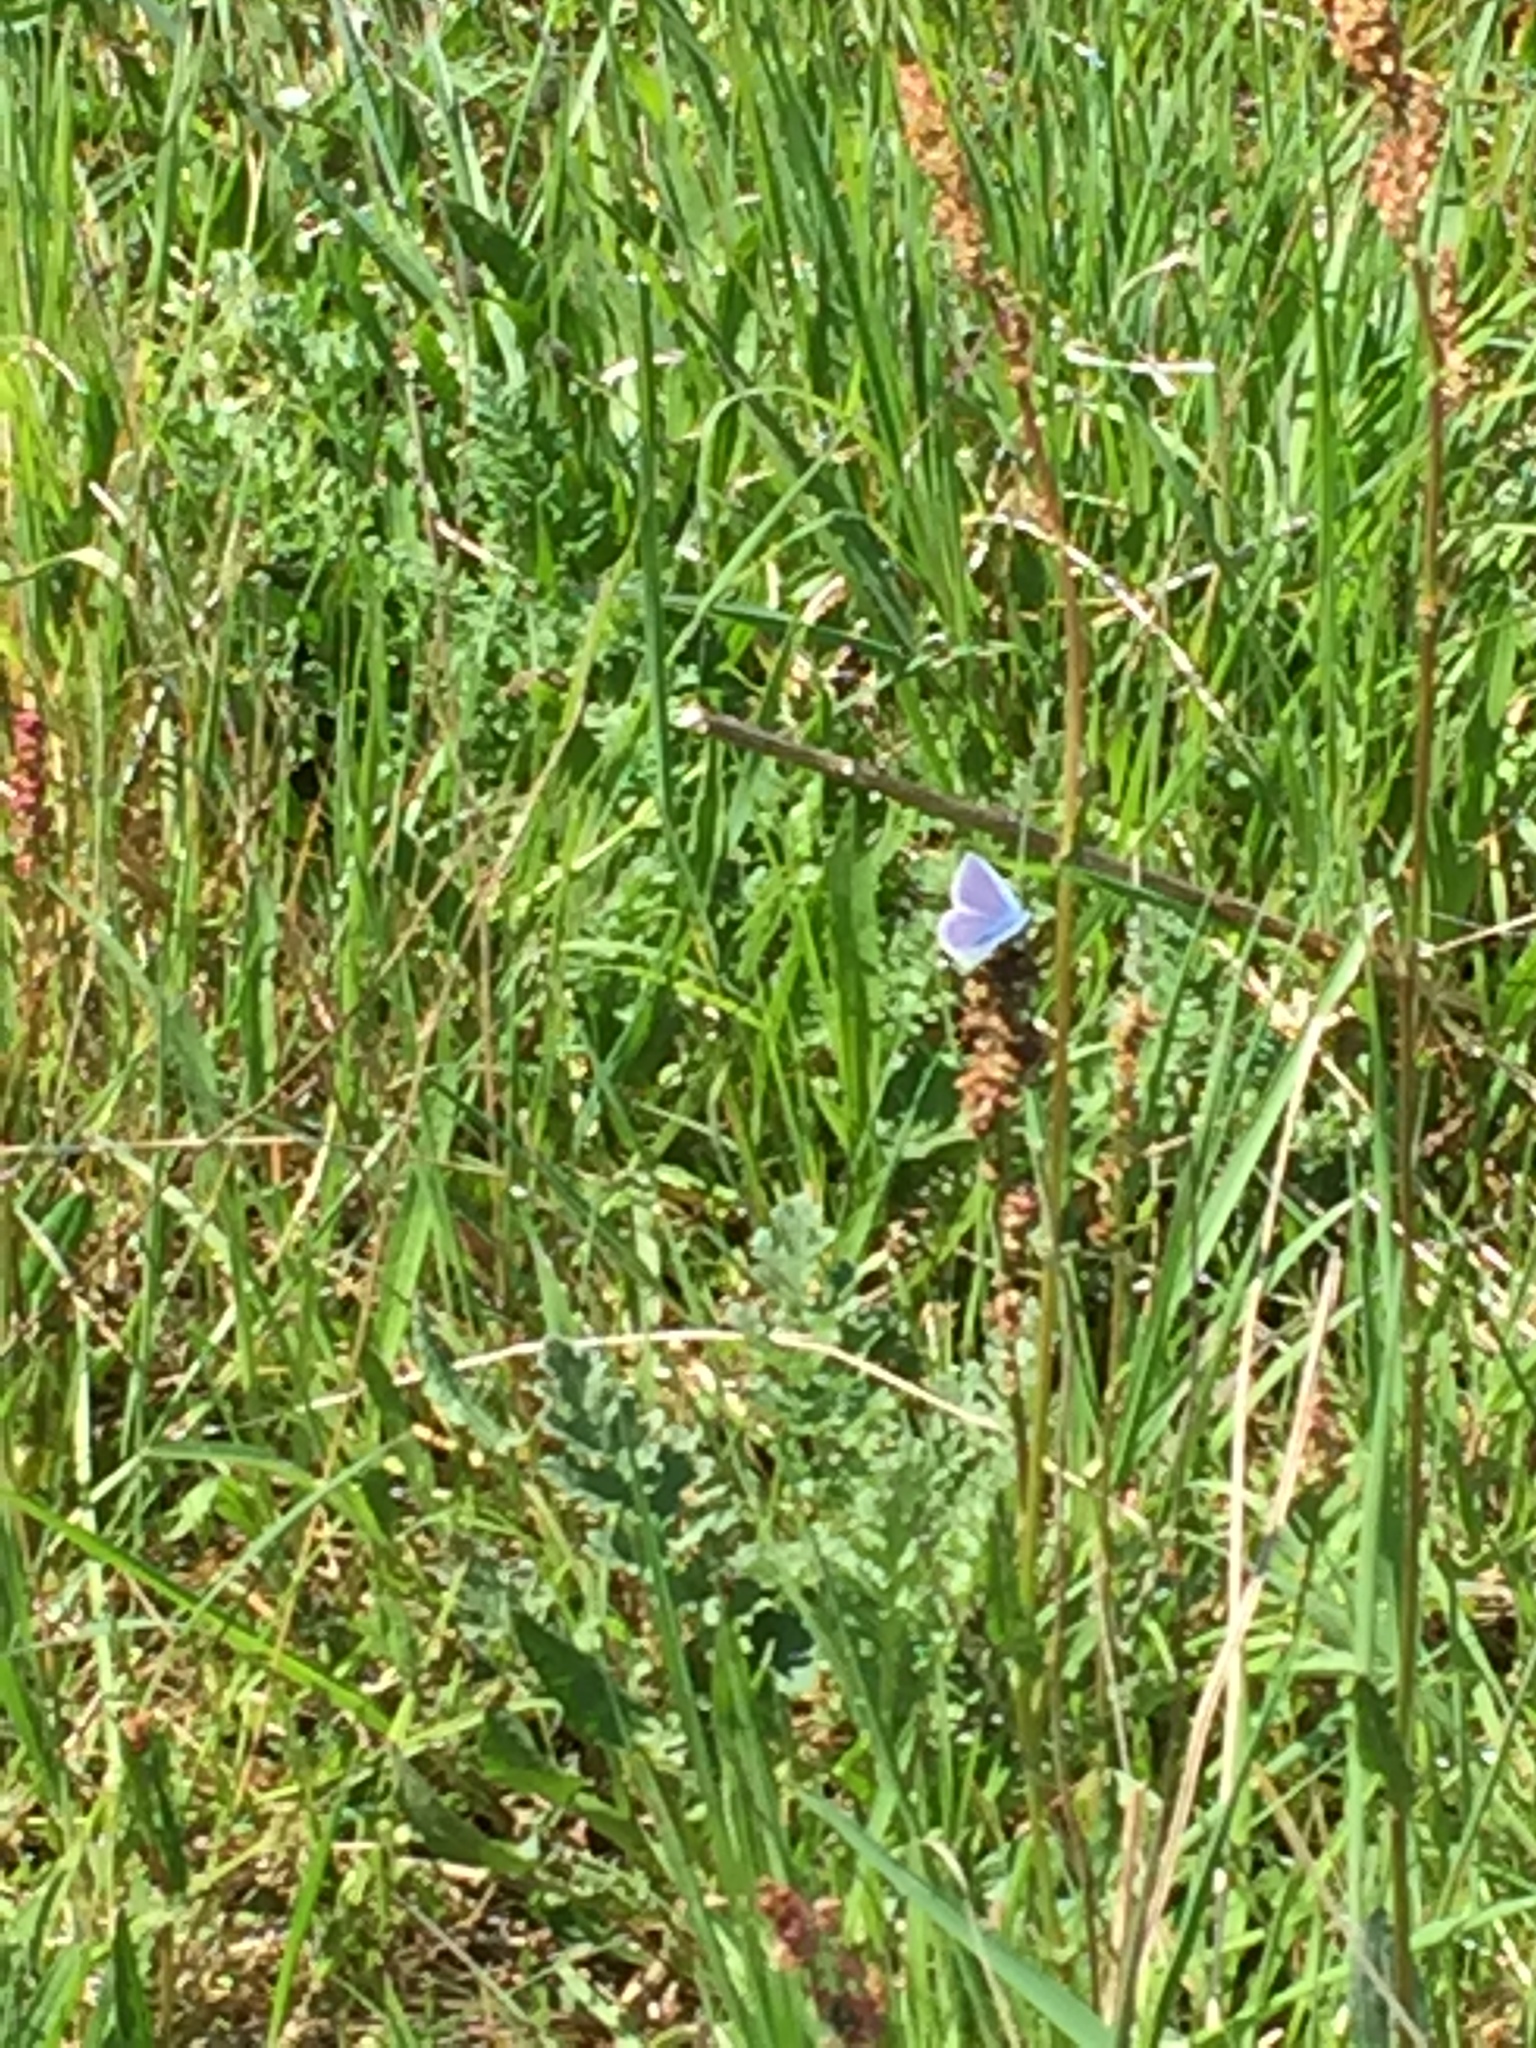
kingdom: Animalia
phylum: Arthropoda
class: Insecta
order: Lepidoptera
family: Lycaenidae
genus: Polyommatus
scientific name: Polyommatus icarus
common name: Common blue
